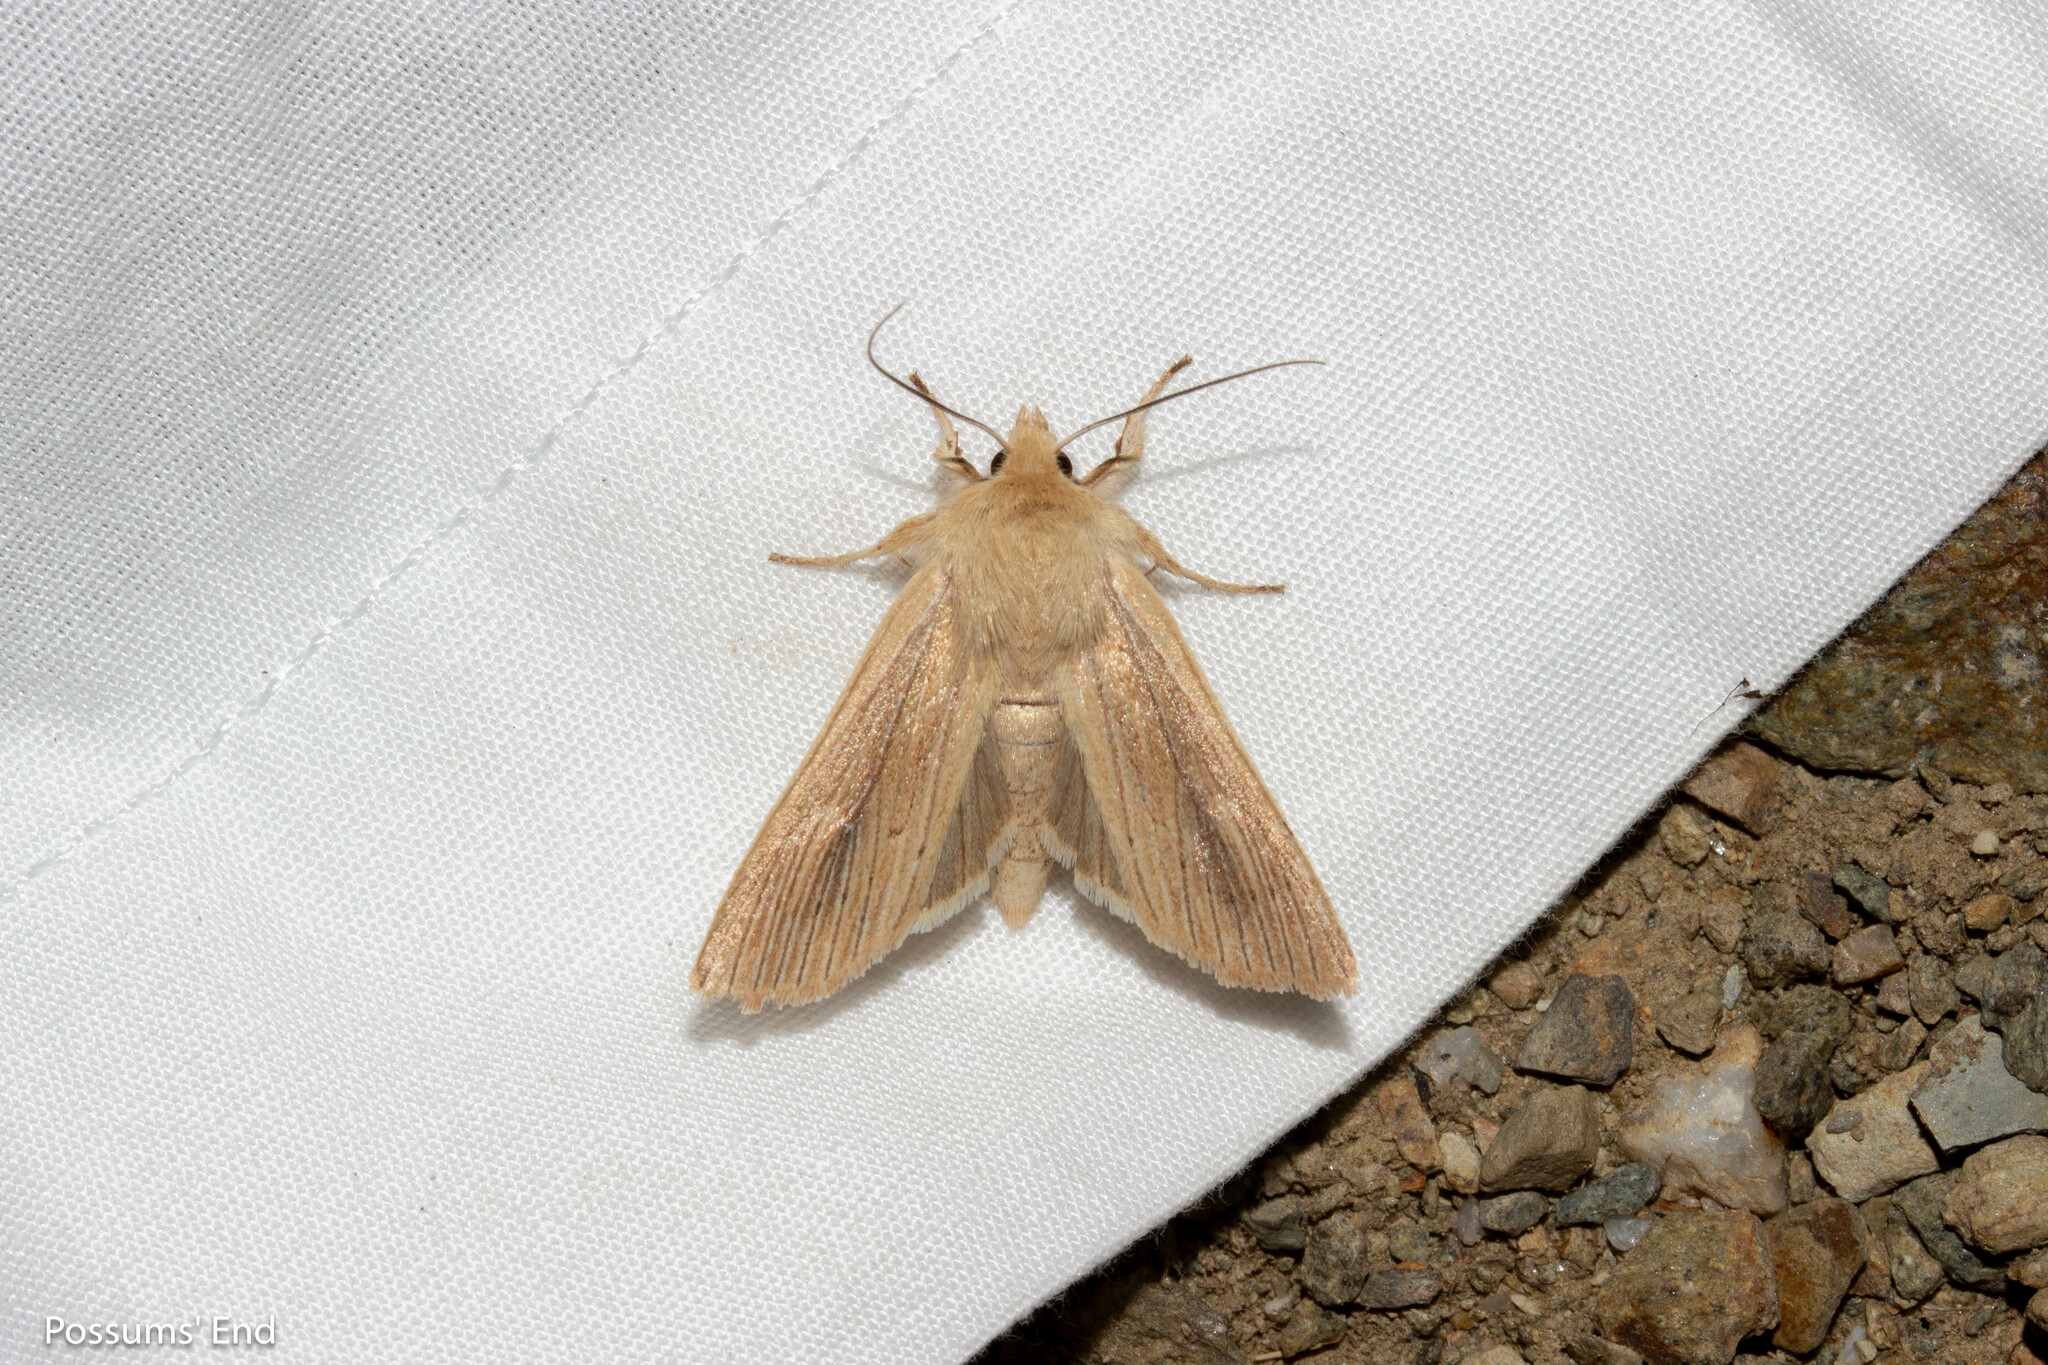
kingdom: Animalia
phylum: Arthropoda
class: Insecta
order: Lepidoptera
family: Noctuidae
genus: Ichneutica
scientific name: Ichneutica arotis
